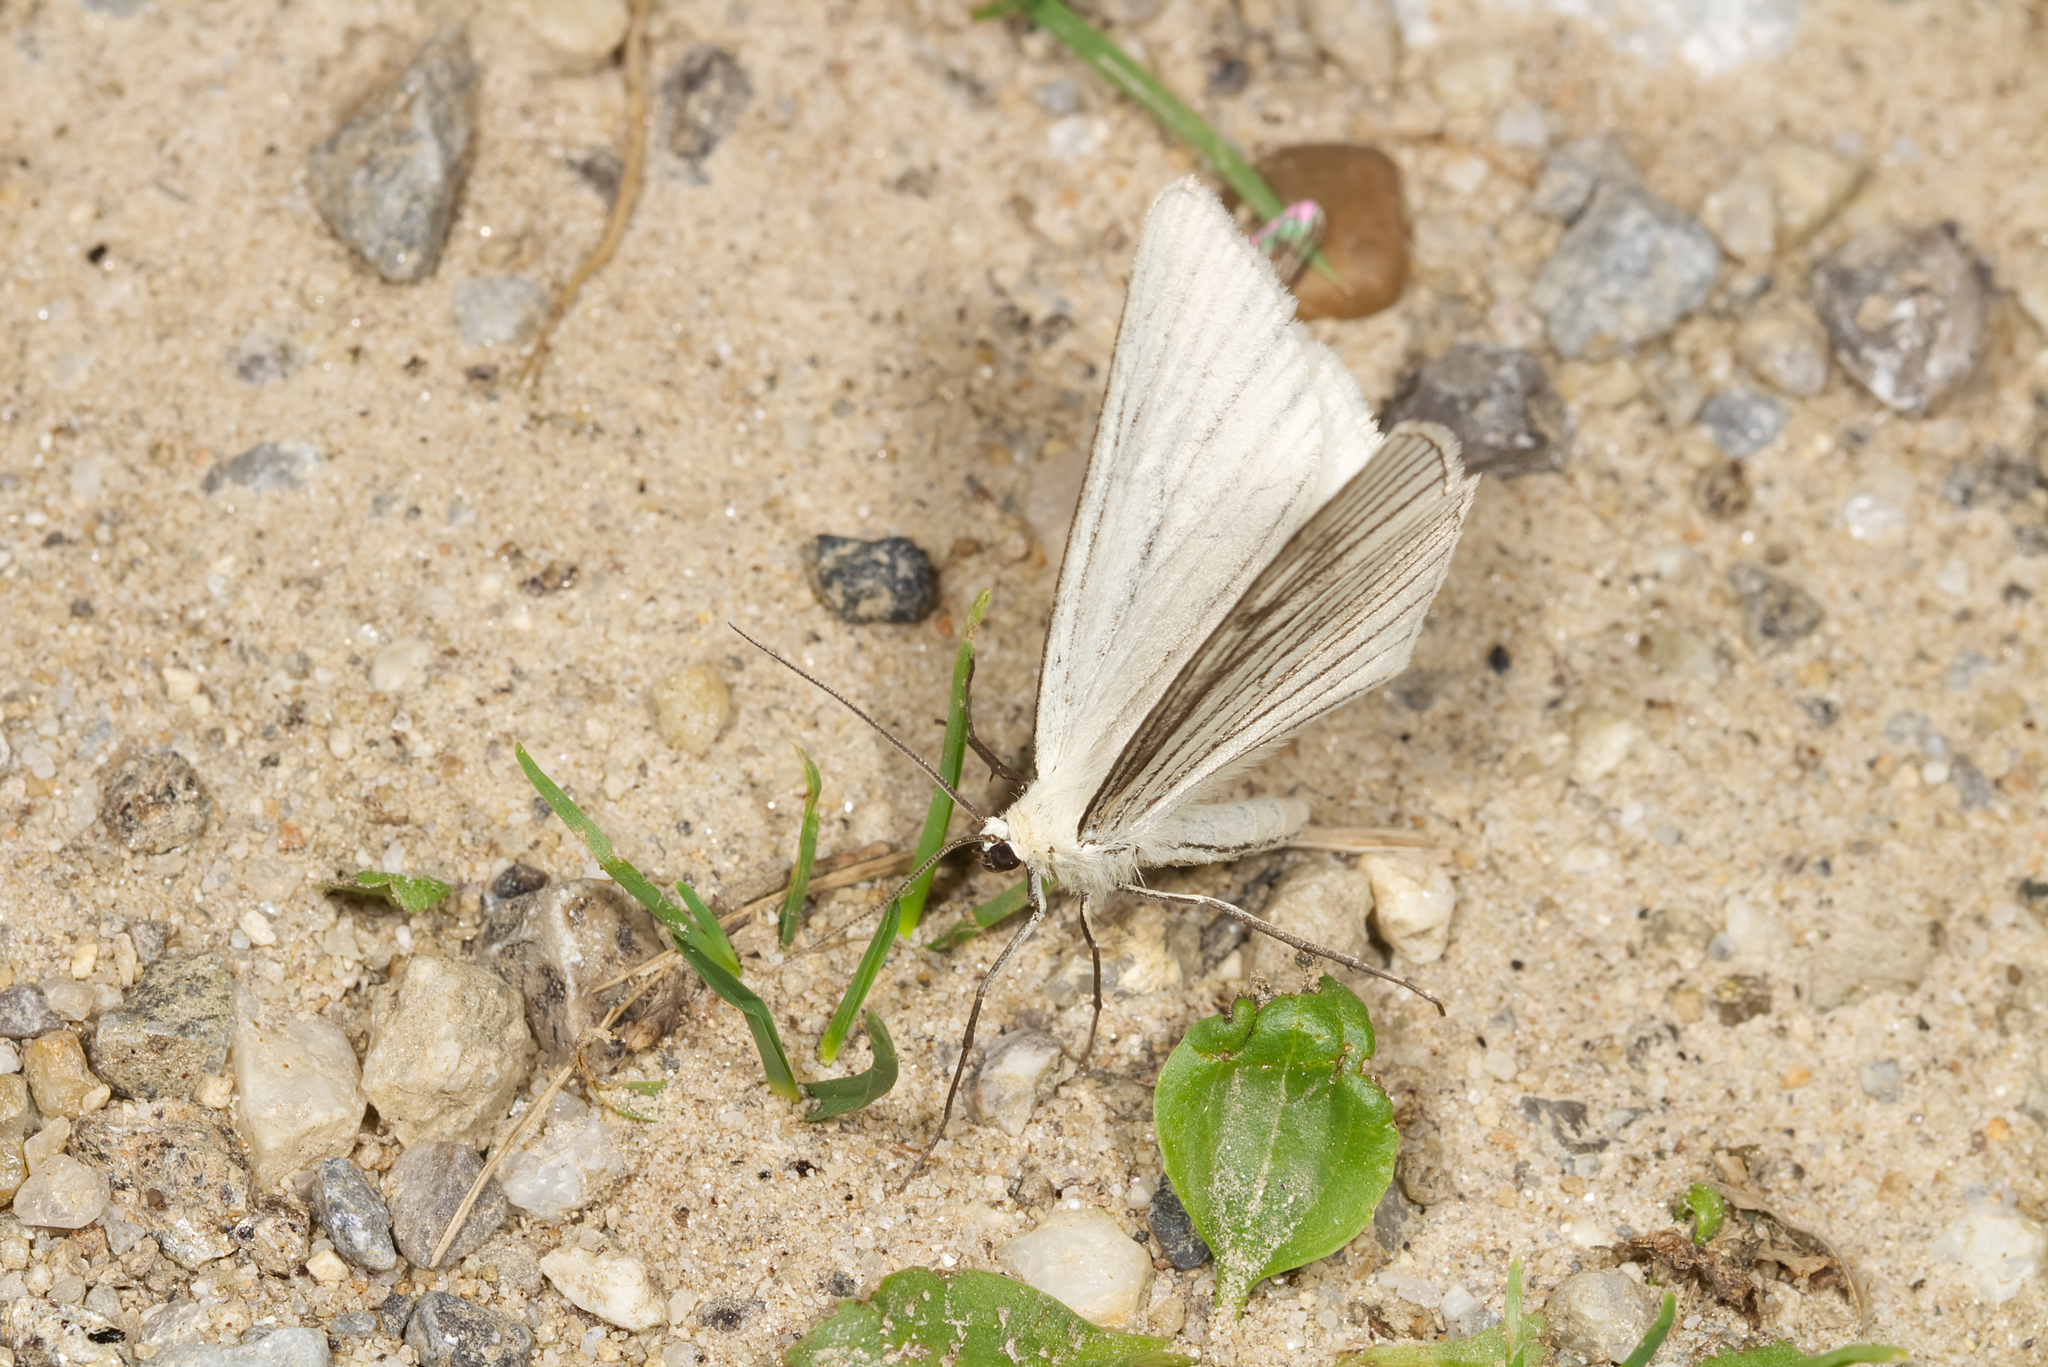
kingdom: Animalia
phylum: Arthropoda
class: Insecta
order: Lepidoptera
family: Geometridae
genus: Siona
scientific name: Siona lineata
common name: Black-veined moth
